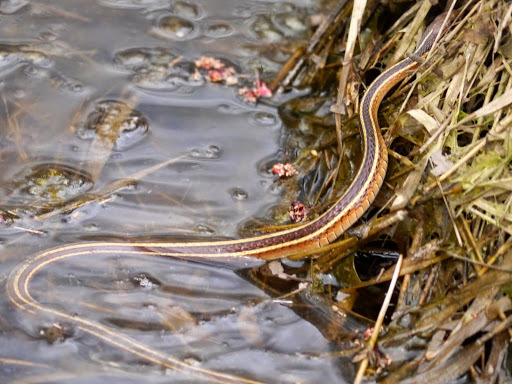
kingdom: Animalia
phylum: Chordata
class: Squamata
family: Colubridae
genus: Thamnophis
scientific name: Thamnophis saurita
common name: Eastern ribbonsnake
